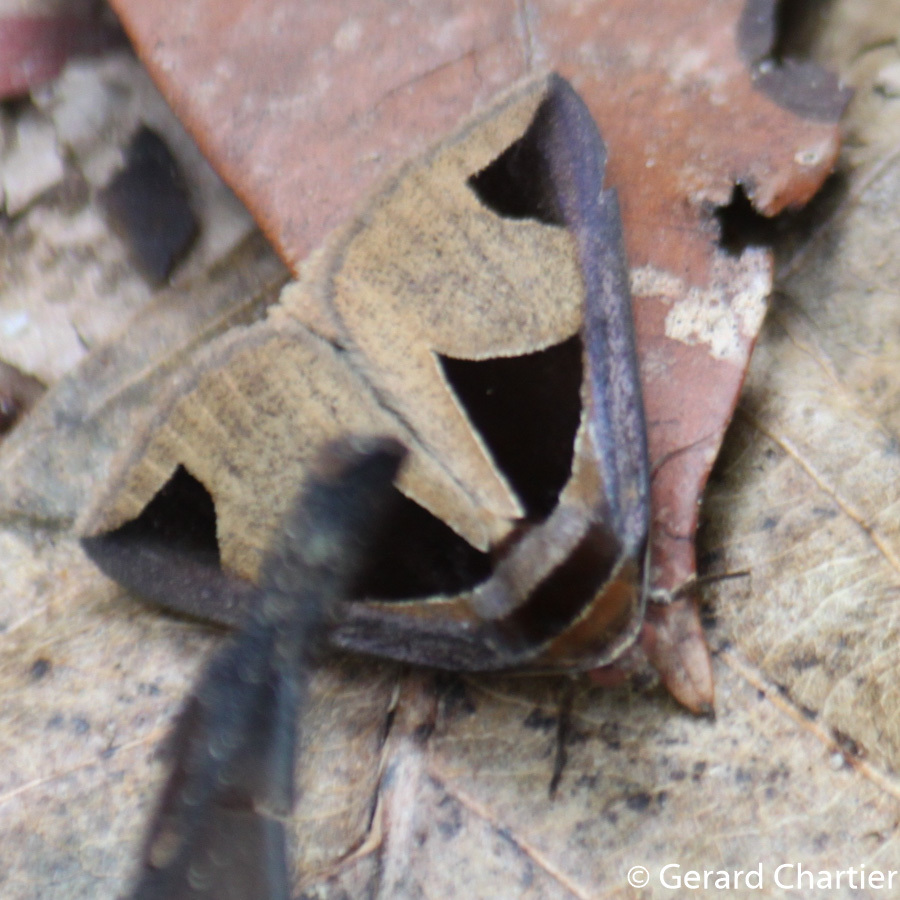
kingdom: Animalia
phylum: Arthropoda
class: Insecta
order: Lepidoptera
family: Erebidae
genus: Fodina
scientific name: Fodina cuneigera
